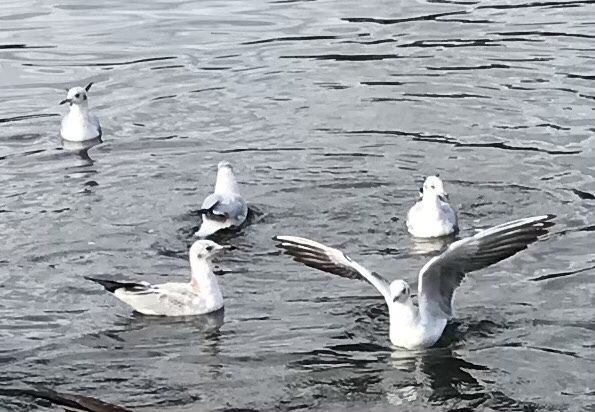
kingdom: Animalia
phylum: Chordata
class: Aves
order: Charadriiformes
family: Laridae
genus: Chroicocephalus
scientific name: Chroicocephalus ridibundus
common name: Black-headed gull
